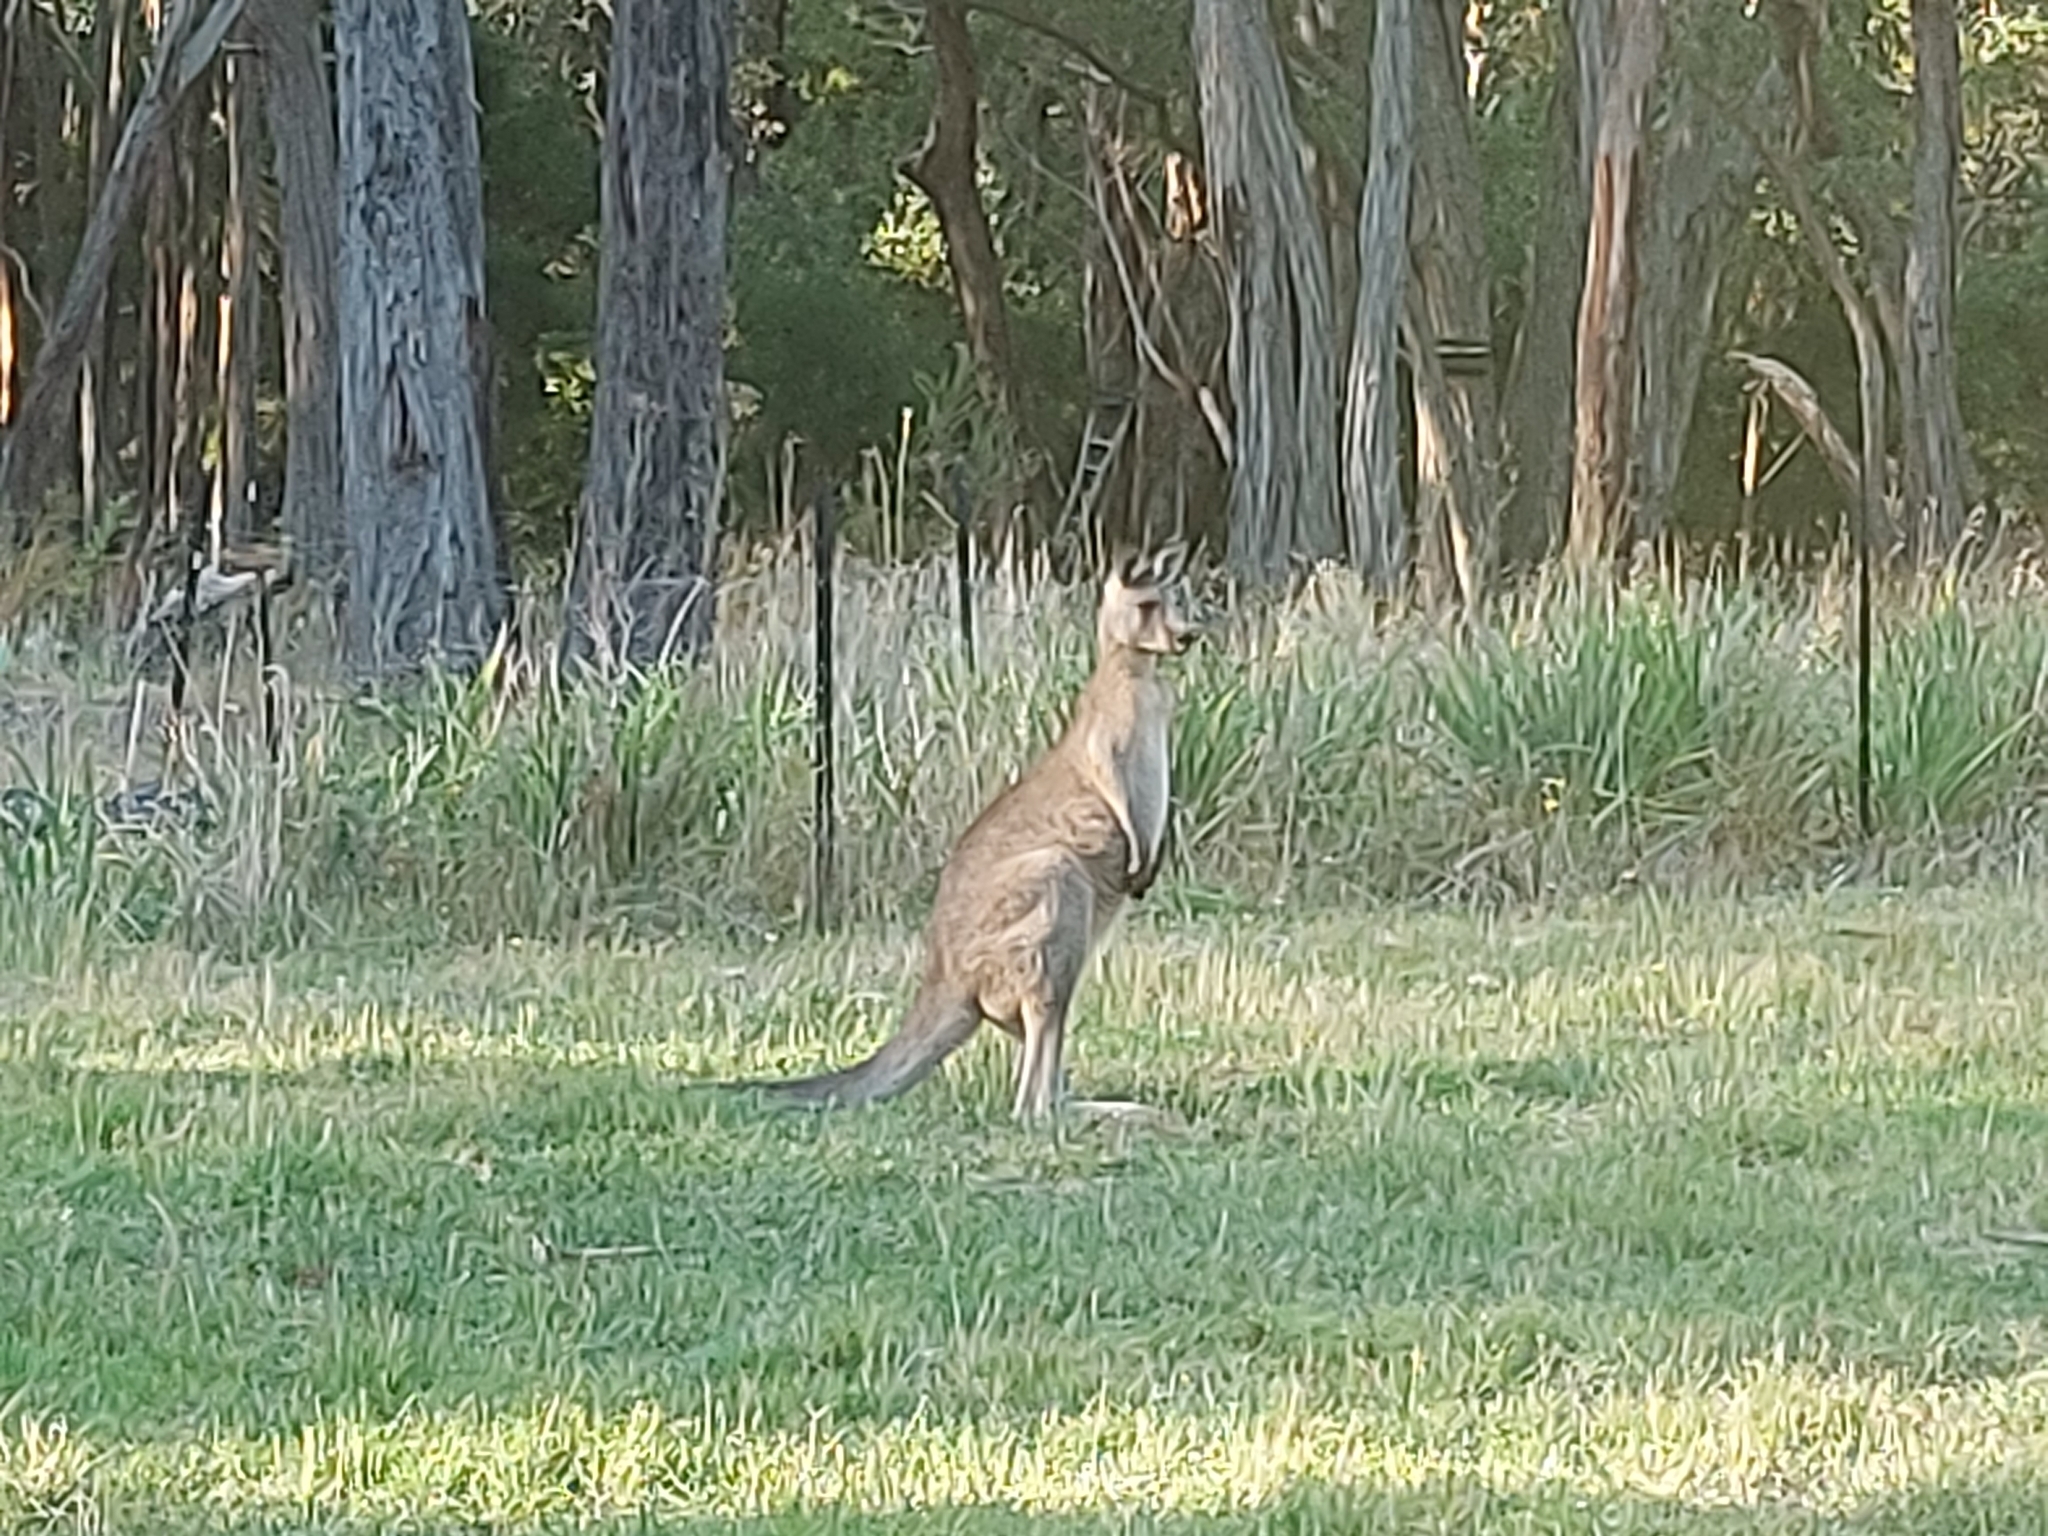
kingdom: Animalia
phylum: Chordata
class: Mammalia
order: Diprotodontia
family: Macropodidae
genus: Macropus
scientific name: Macropus giganteus
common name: Eastern grey kangaroo
